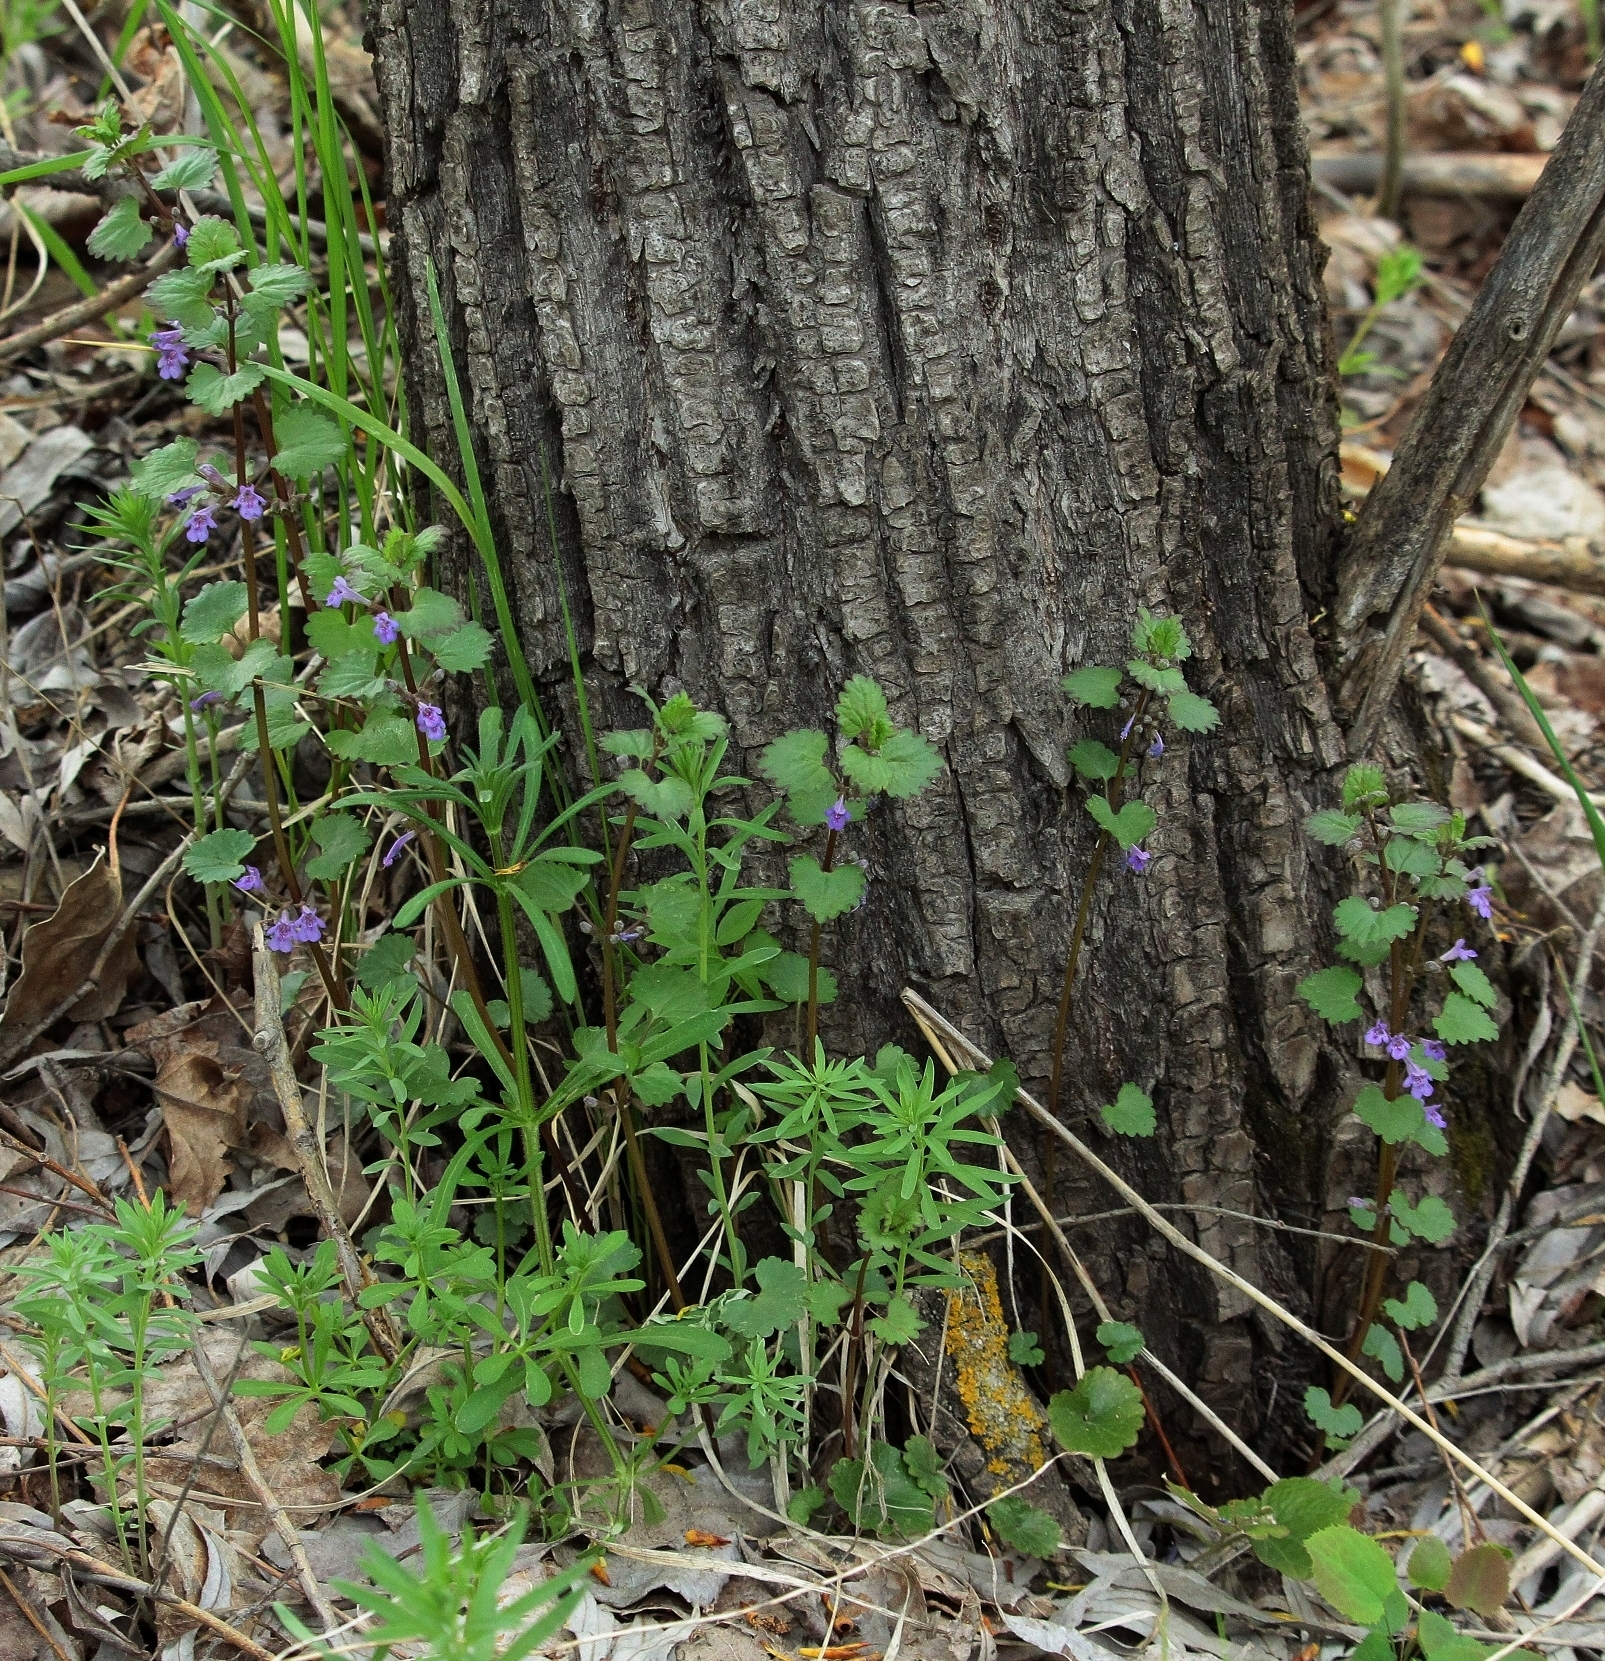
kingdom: Plantae
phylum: Tracheophyta
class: Magnoliopsida
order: Lamiales
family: Lamiaceae
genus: Glechoma
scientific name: Glechoma hederacea
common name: Ground ivy
